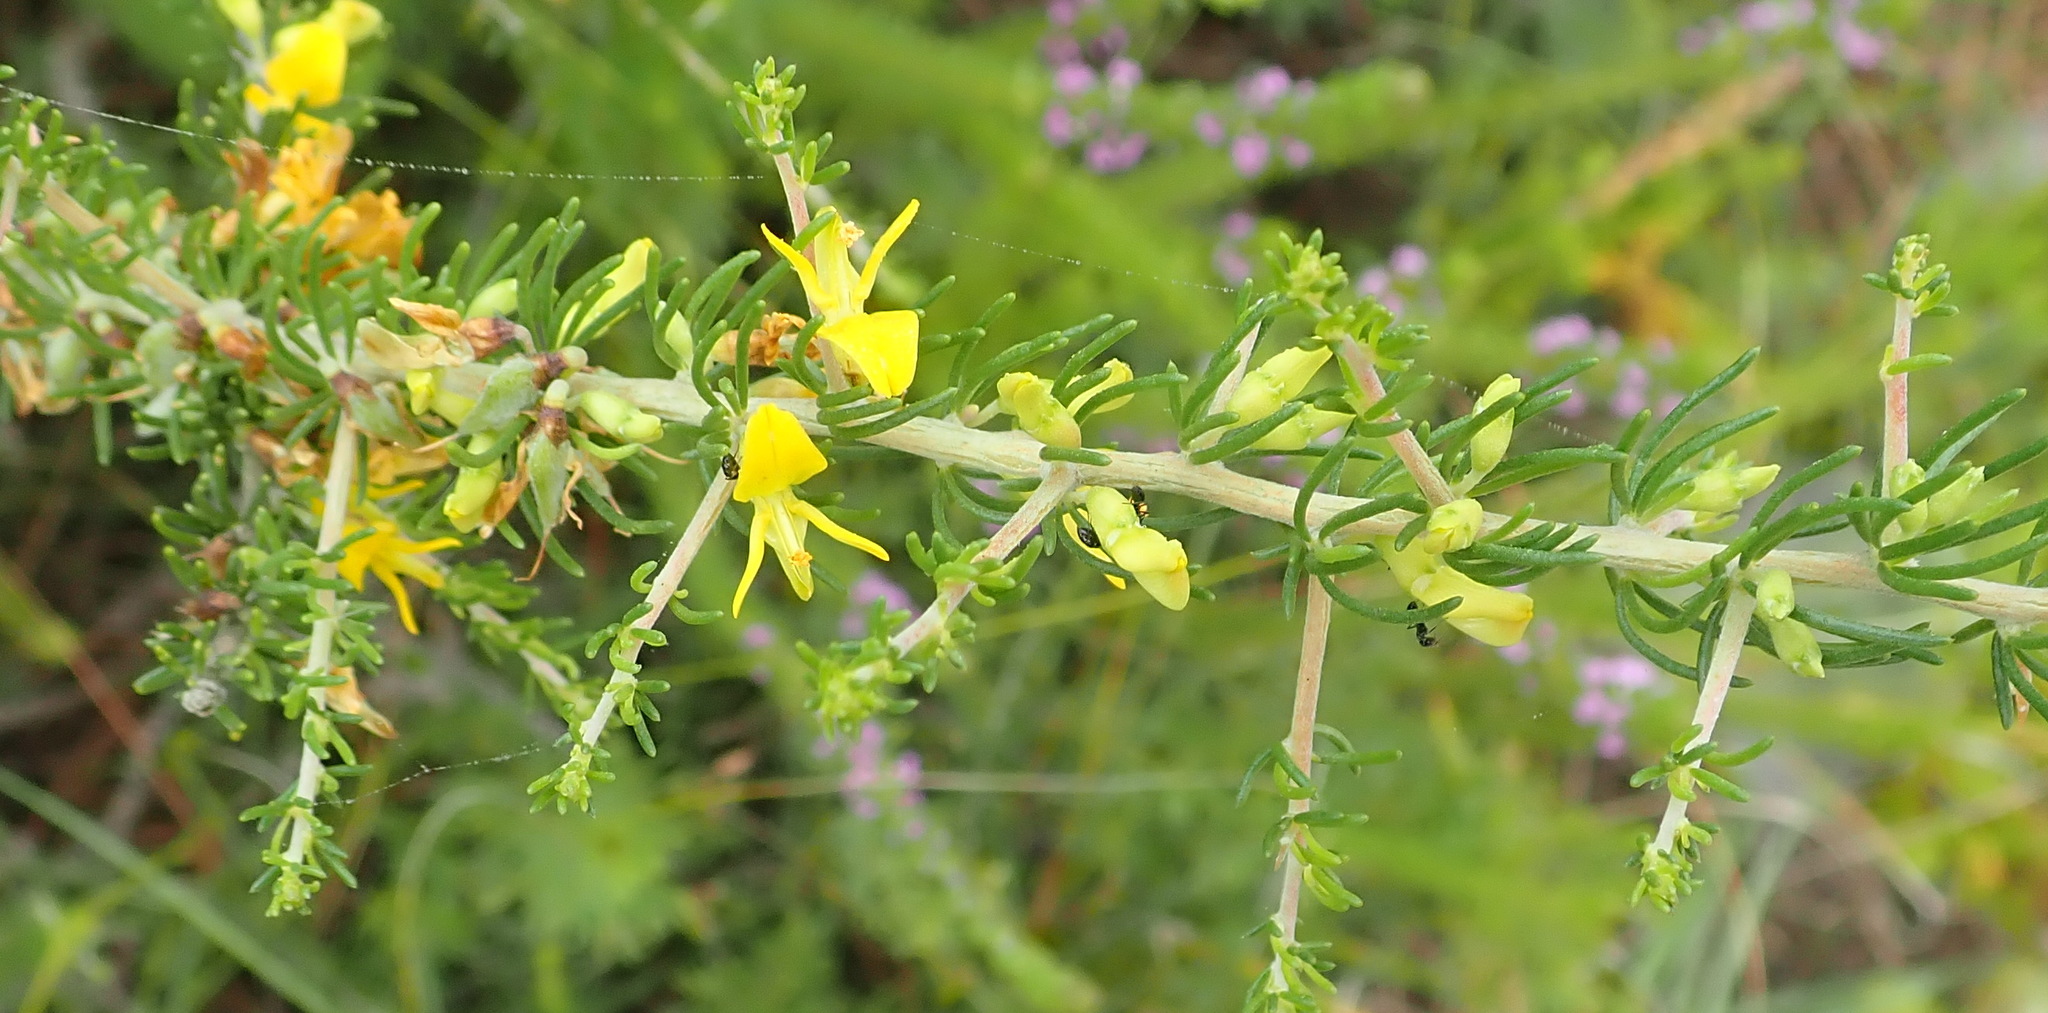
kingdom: Plantae
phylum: Tracheophyta
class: Magnoliopsida
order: Fabales
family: Fabaceae
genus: Aspalathus
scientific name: Aspalathus spinosa
